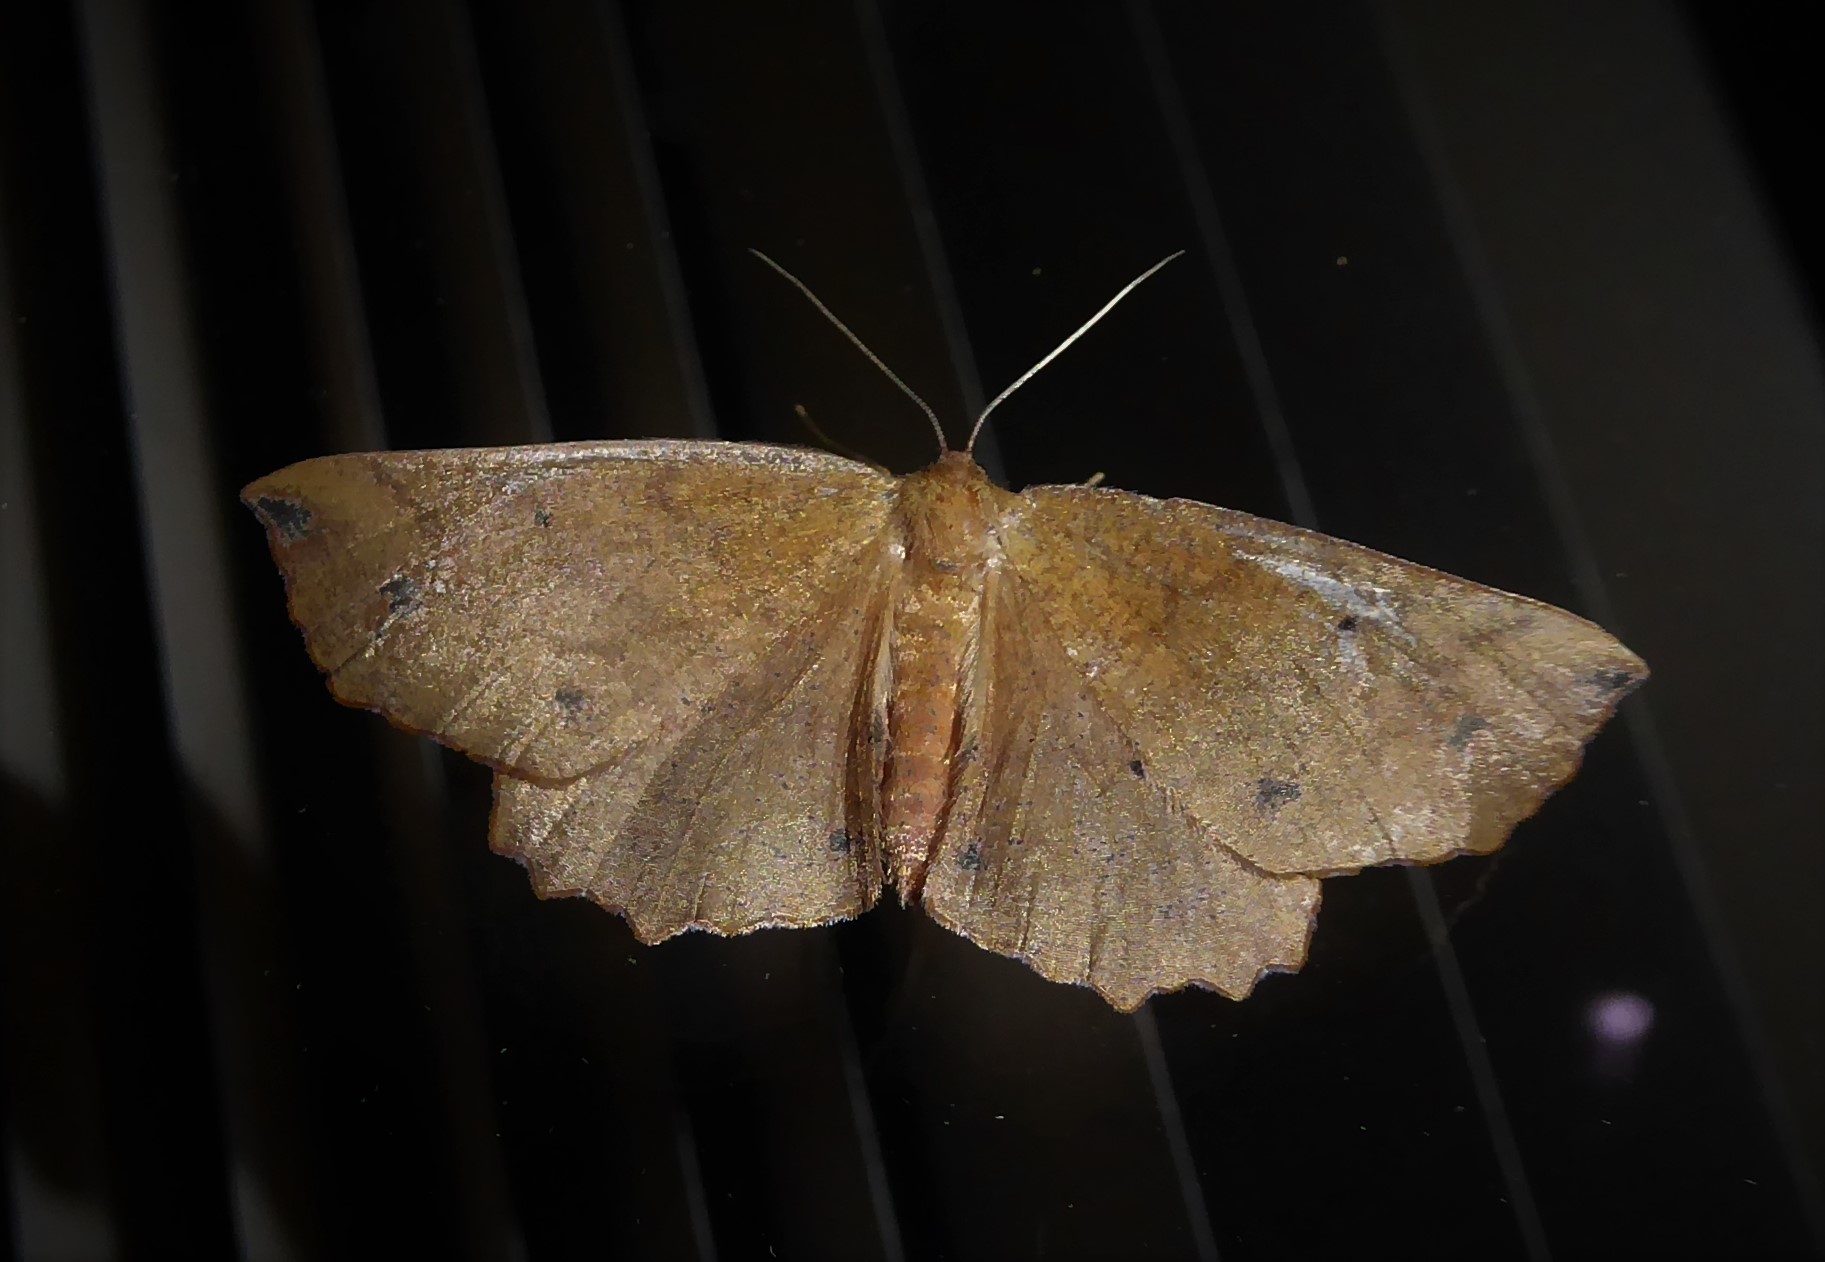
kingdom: Animalia
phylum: Arthropoda
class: Insecta
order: Lepidoptera
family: Geometridae
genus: Xyridacma
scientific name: Xyridacma ustaria
